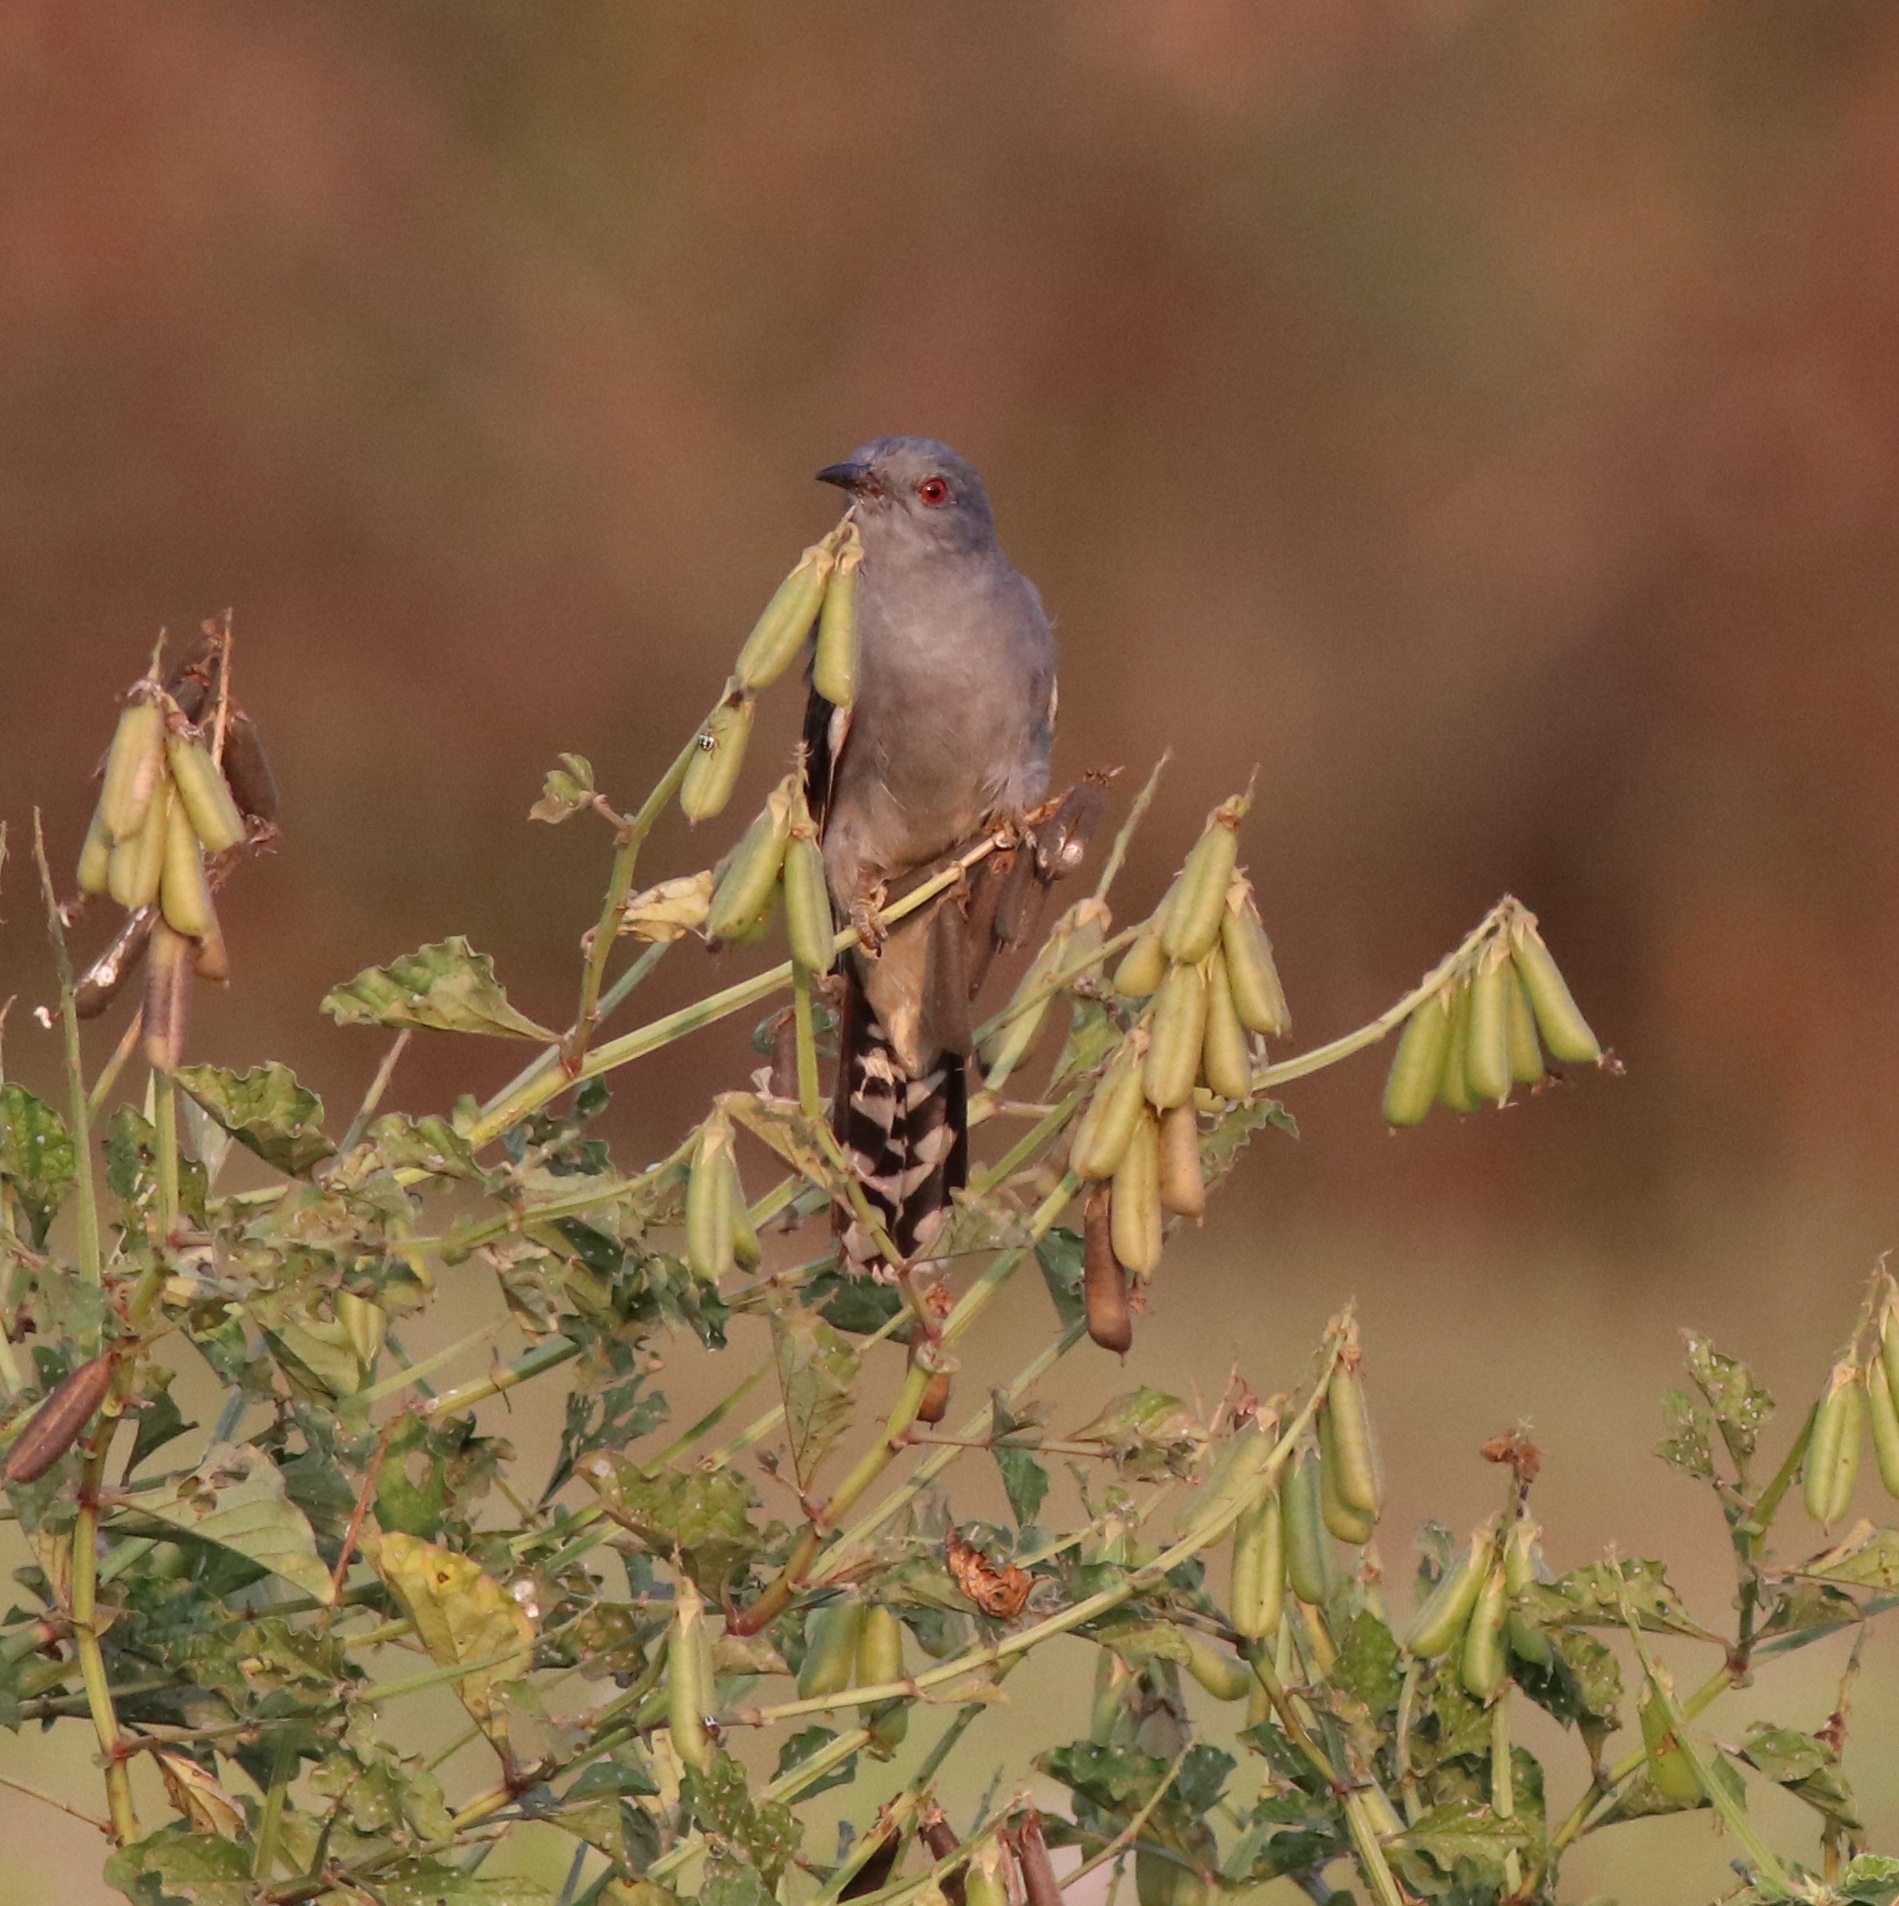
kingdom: Animalia
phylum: Chordata
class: Aves
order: Cuculiformes
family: Cuculidae
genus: Cacomantis
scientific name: Cacomantis passerinus
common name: Grey-bellied cuckoo
